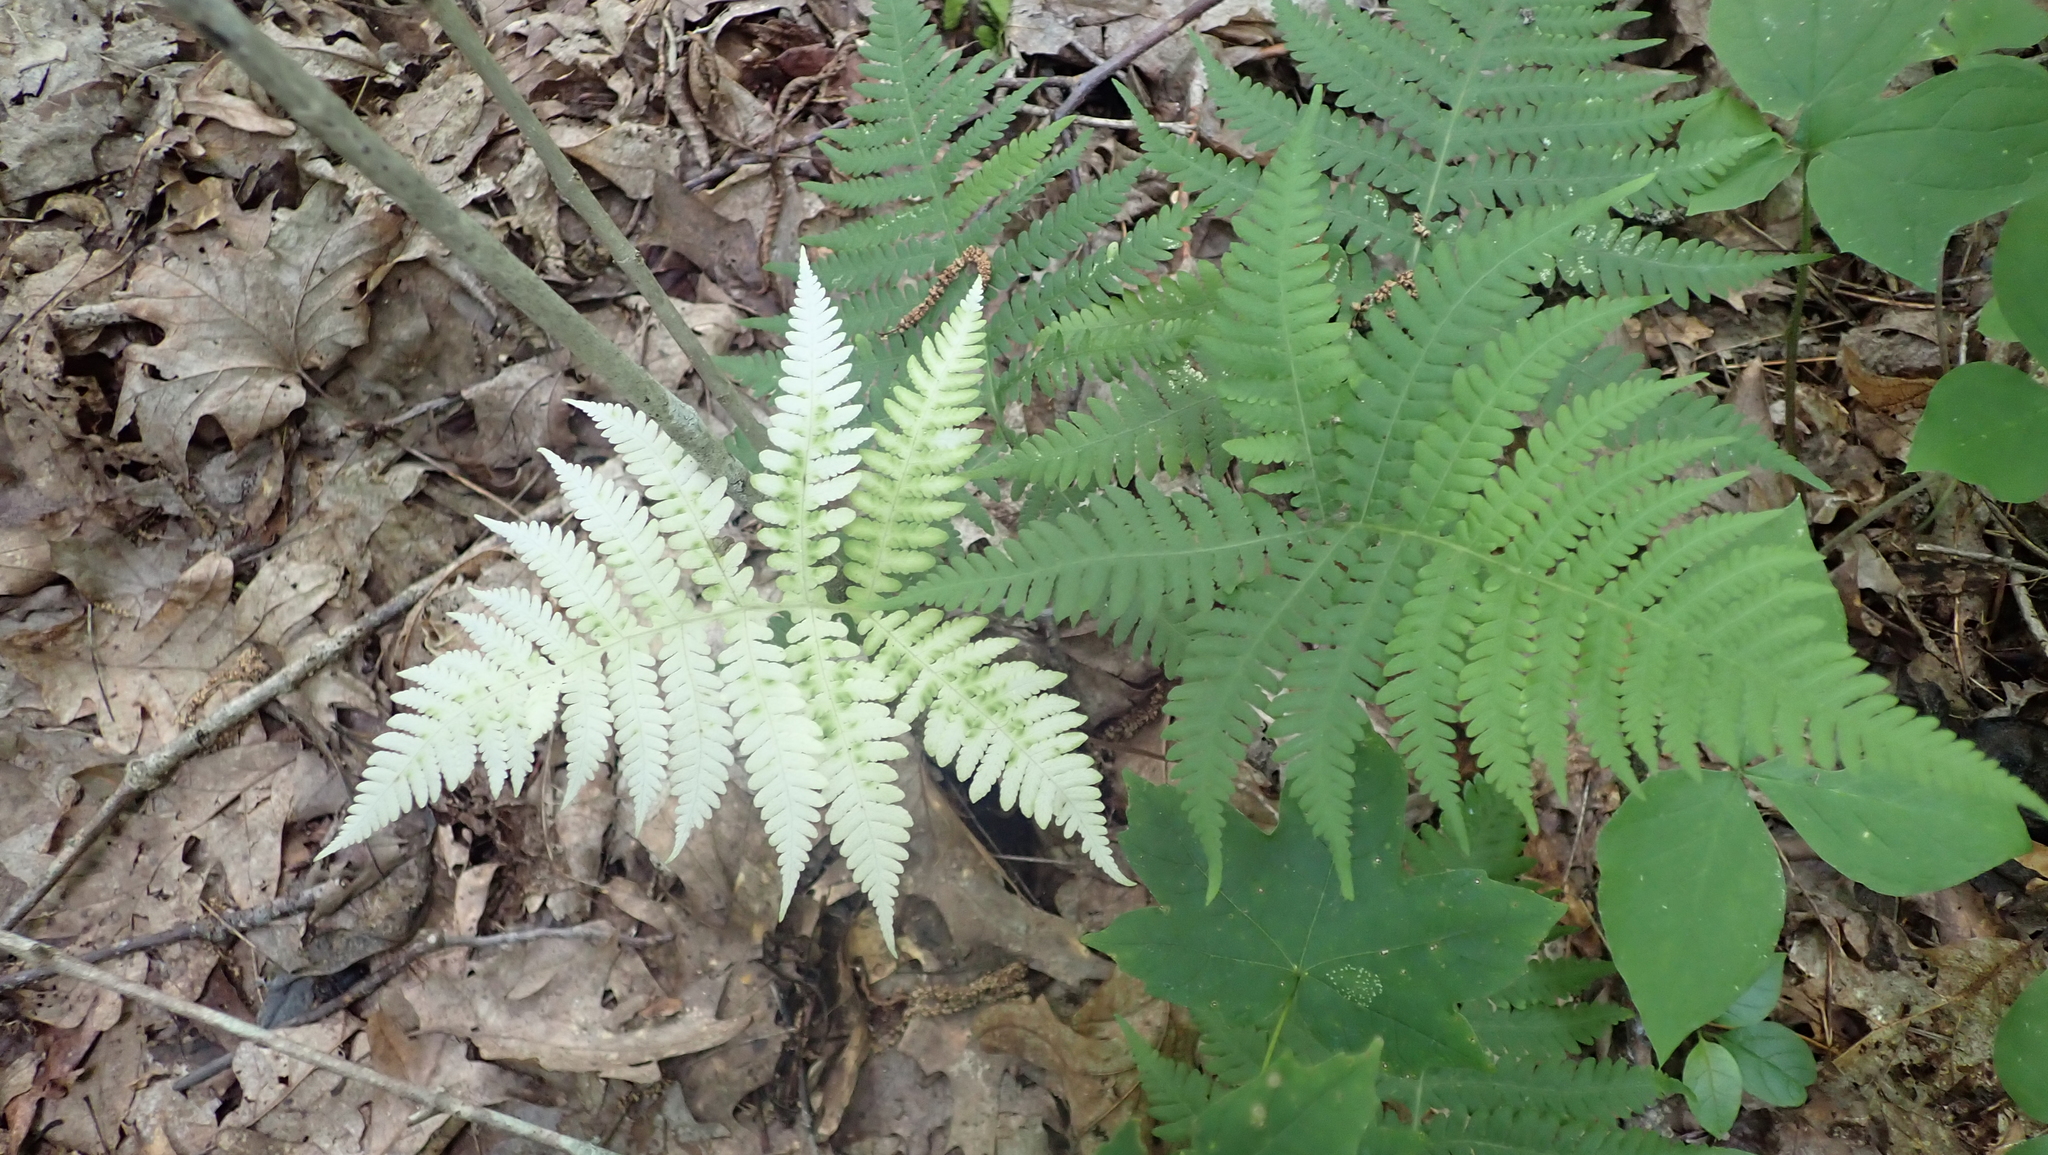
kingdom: Plantae
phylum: Tracheophyta
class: Polypodiopsida
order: Polypodiales
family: Thelypteridaceae
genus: Phegopteris
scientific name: Phegopteris hexagonoptera
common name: Broad beech fern
